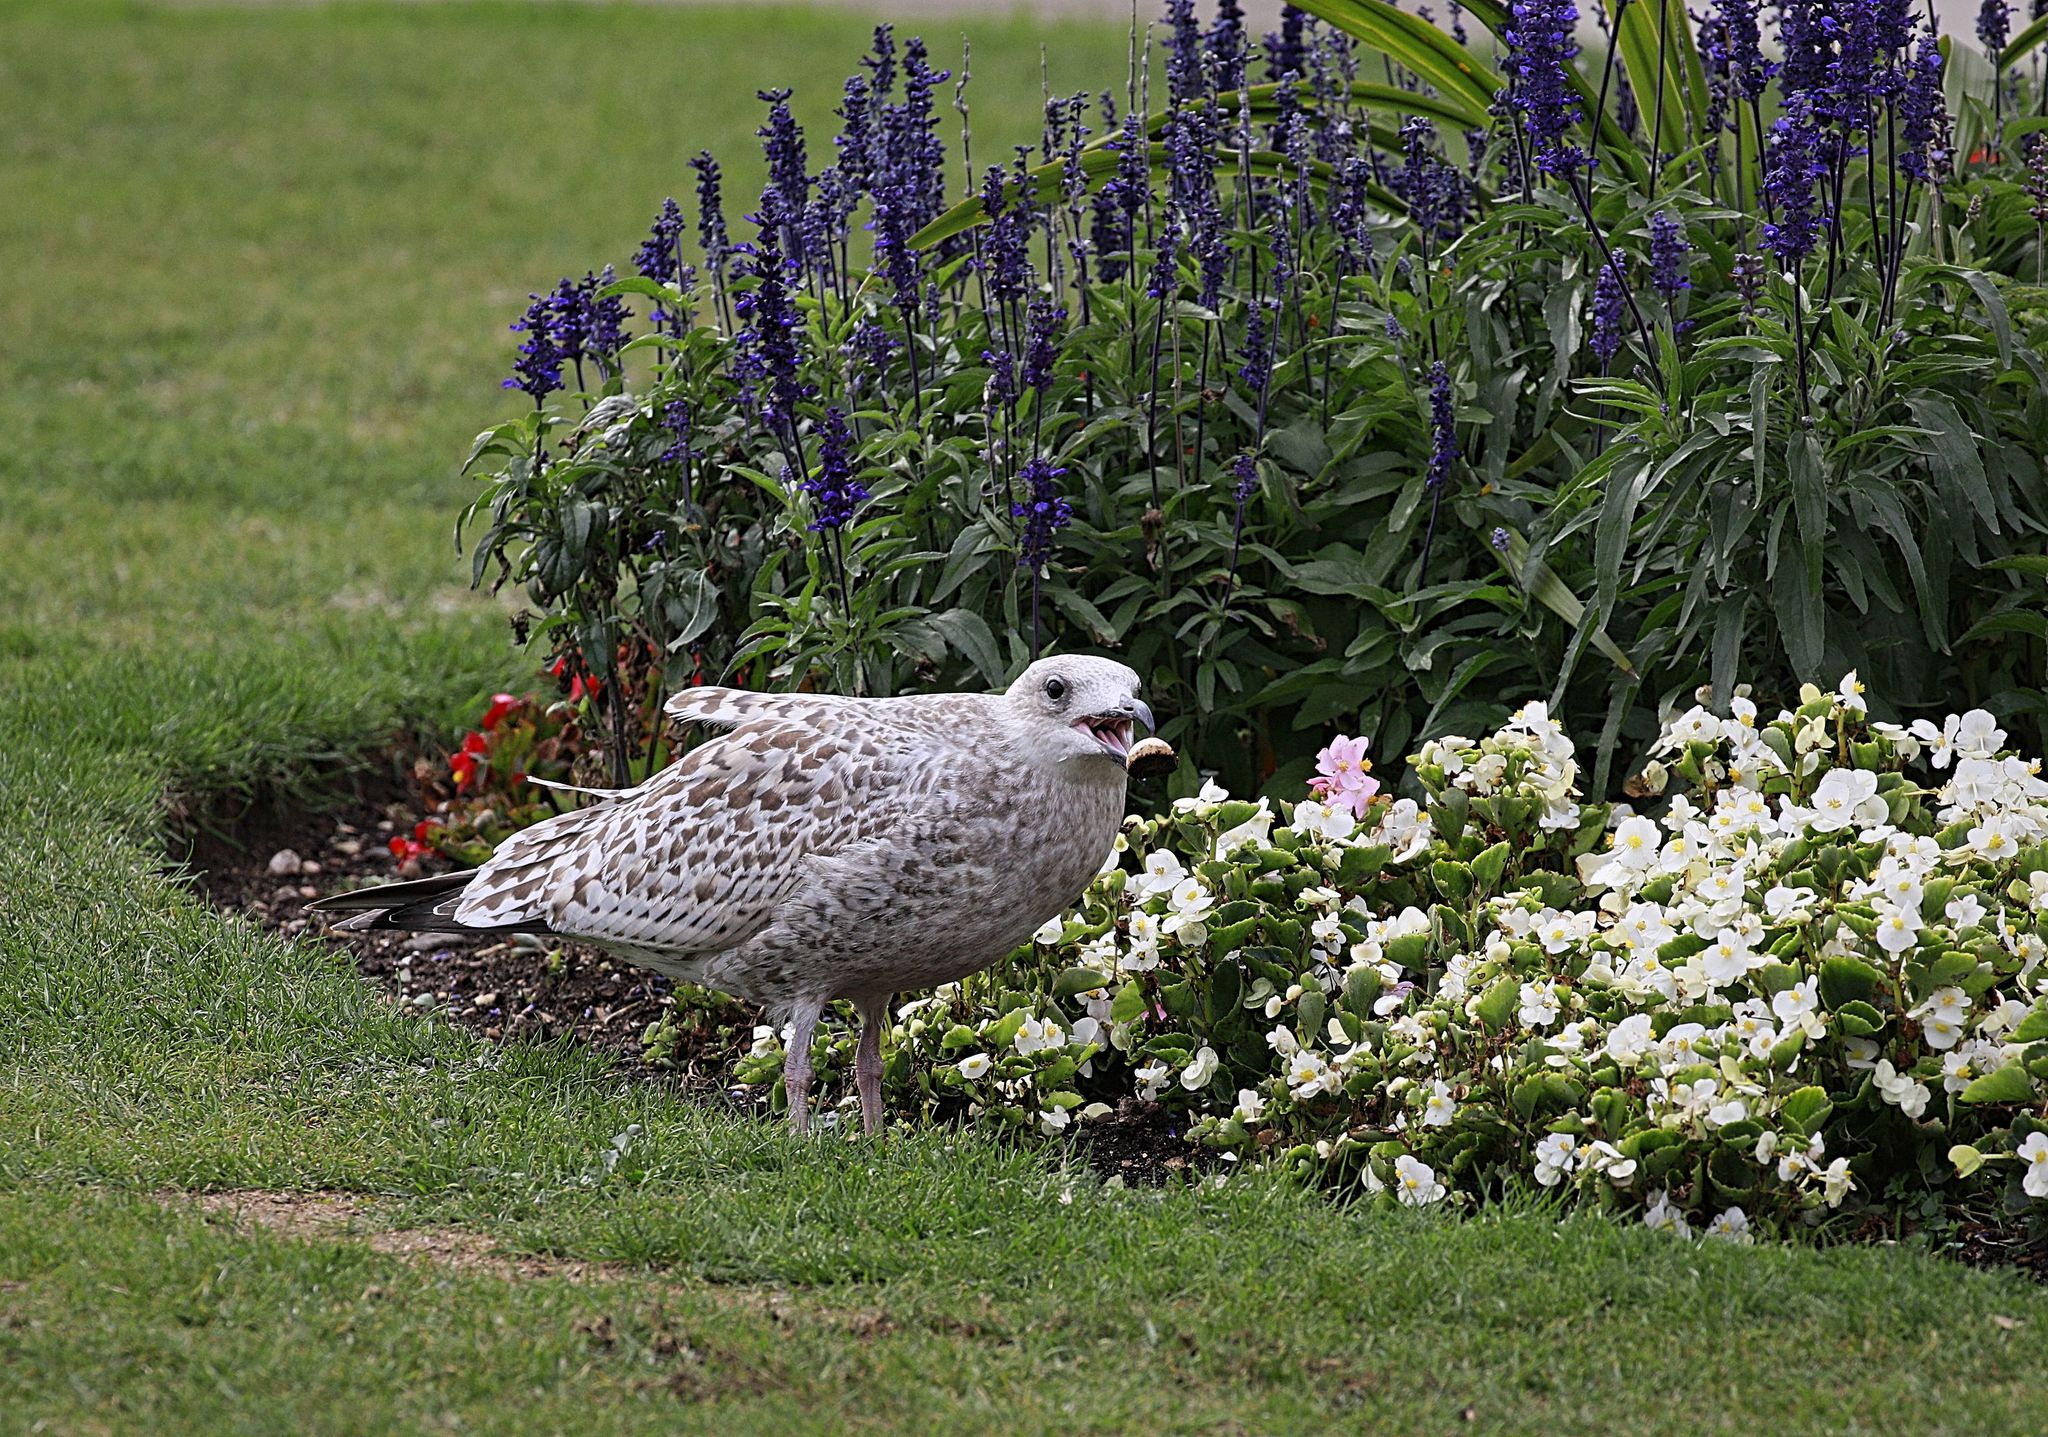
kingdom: Animalia
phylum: Chordata
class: Aves
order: Charadriiformes
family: Laridae
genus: Larus
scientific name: Larus argentatus
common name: Herring gull
